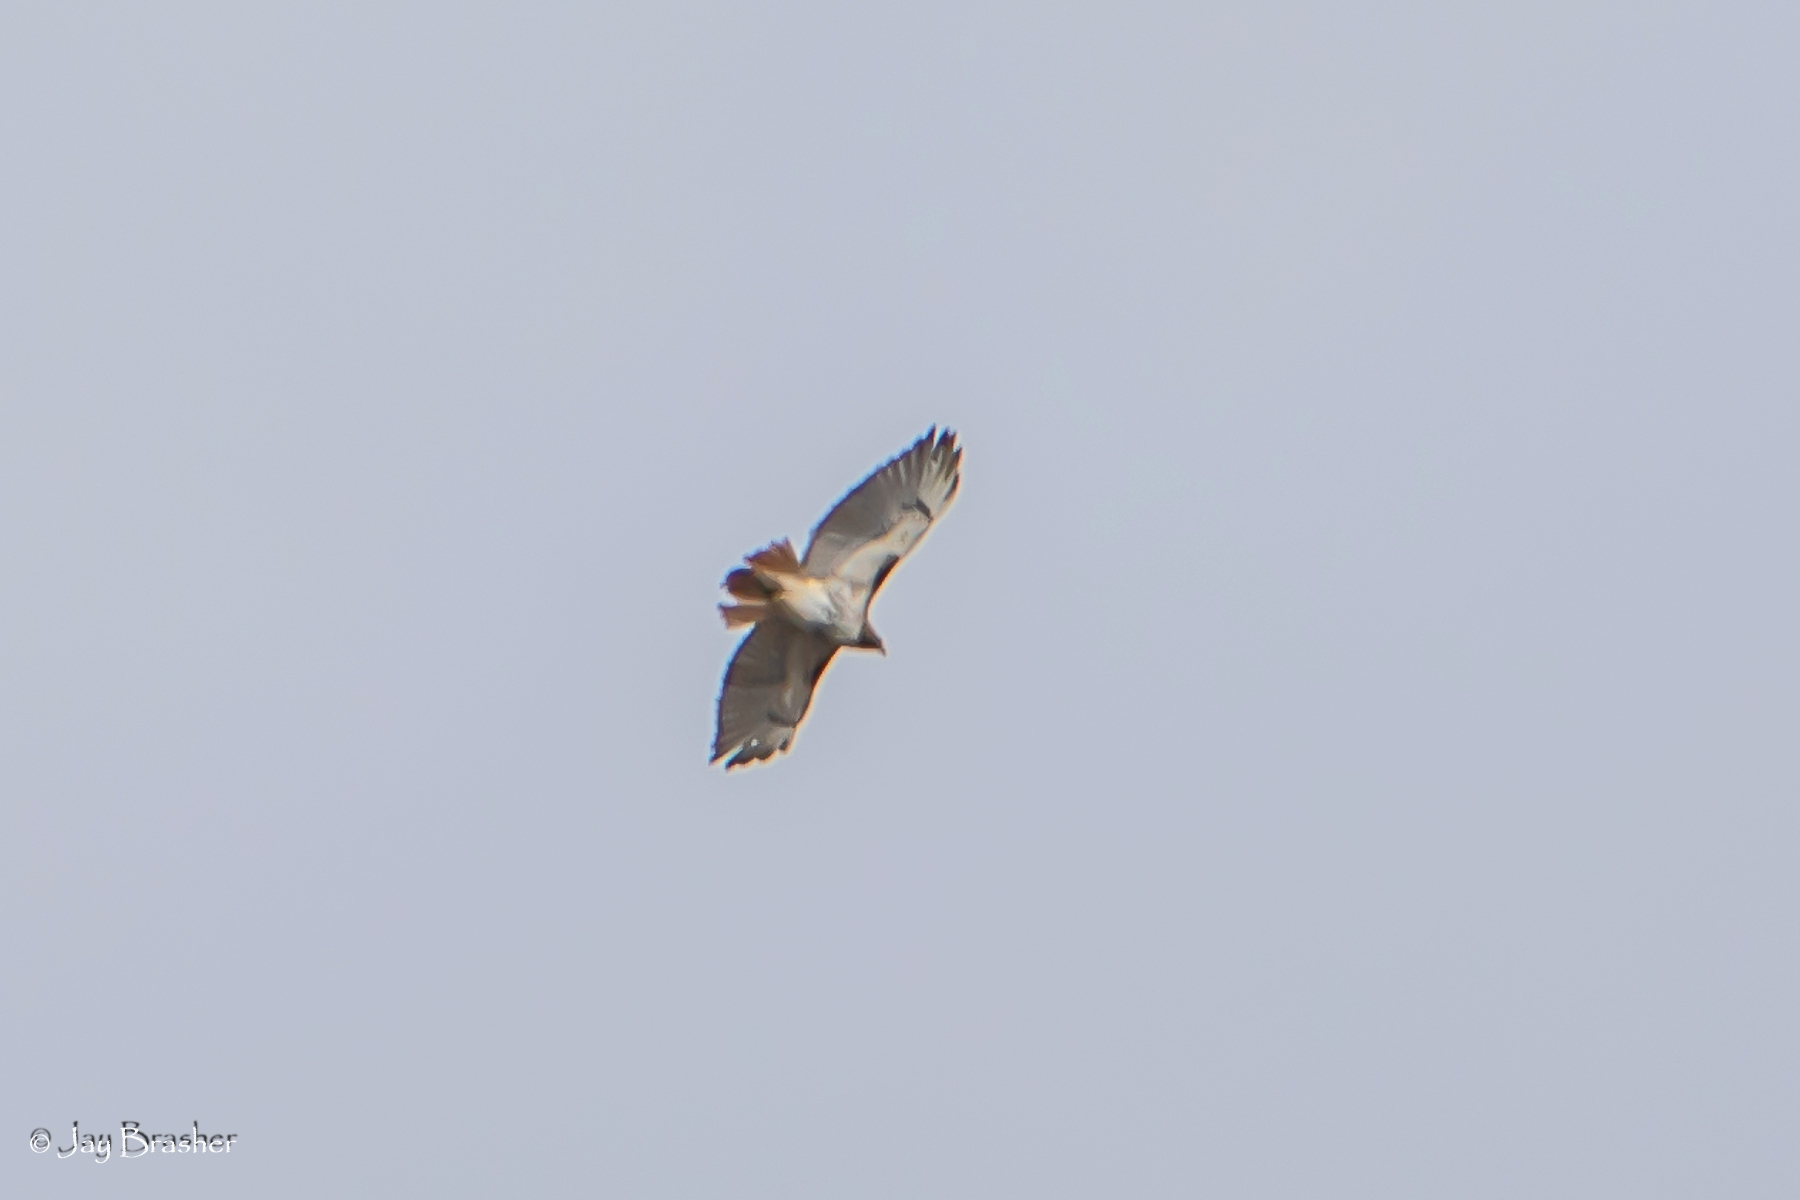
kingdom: Animalia
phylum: Chordata
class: Aves
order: Accipitriformes
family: Accipitridae
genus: Buteo
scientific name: Buteo jamaicensis
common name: Red-tailed hawk
